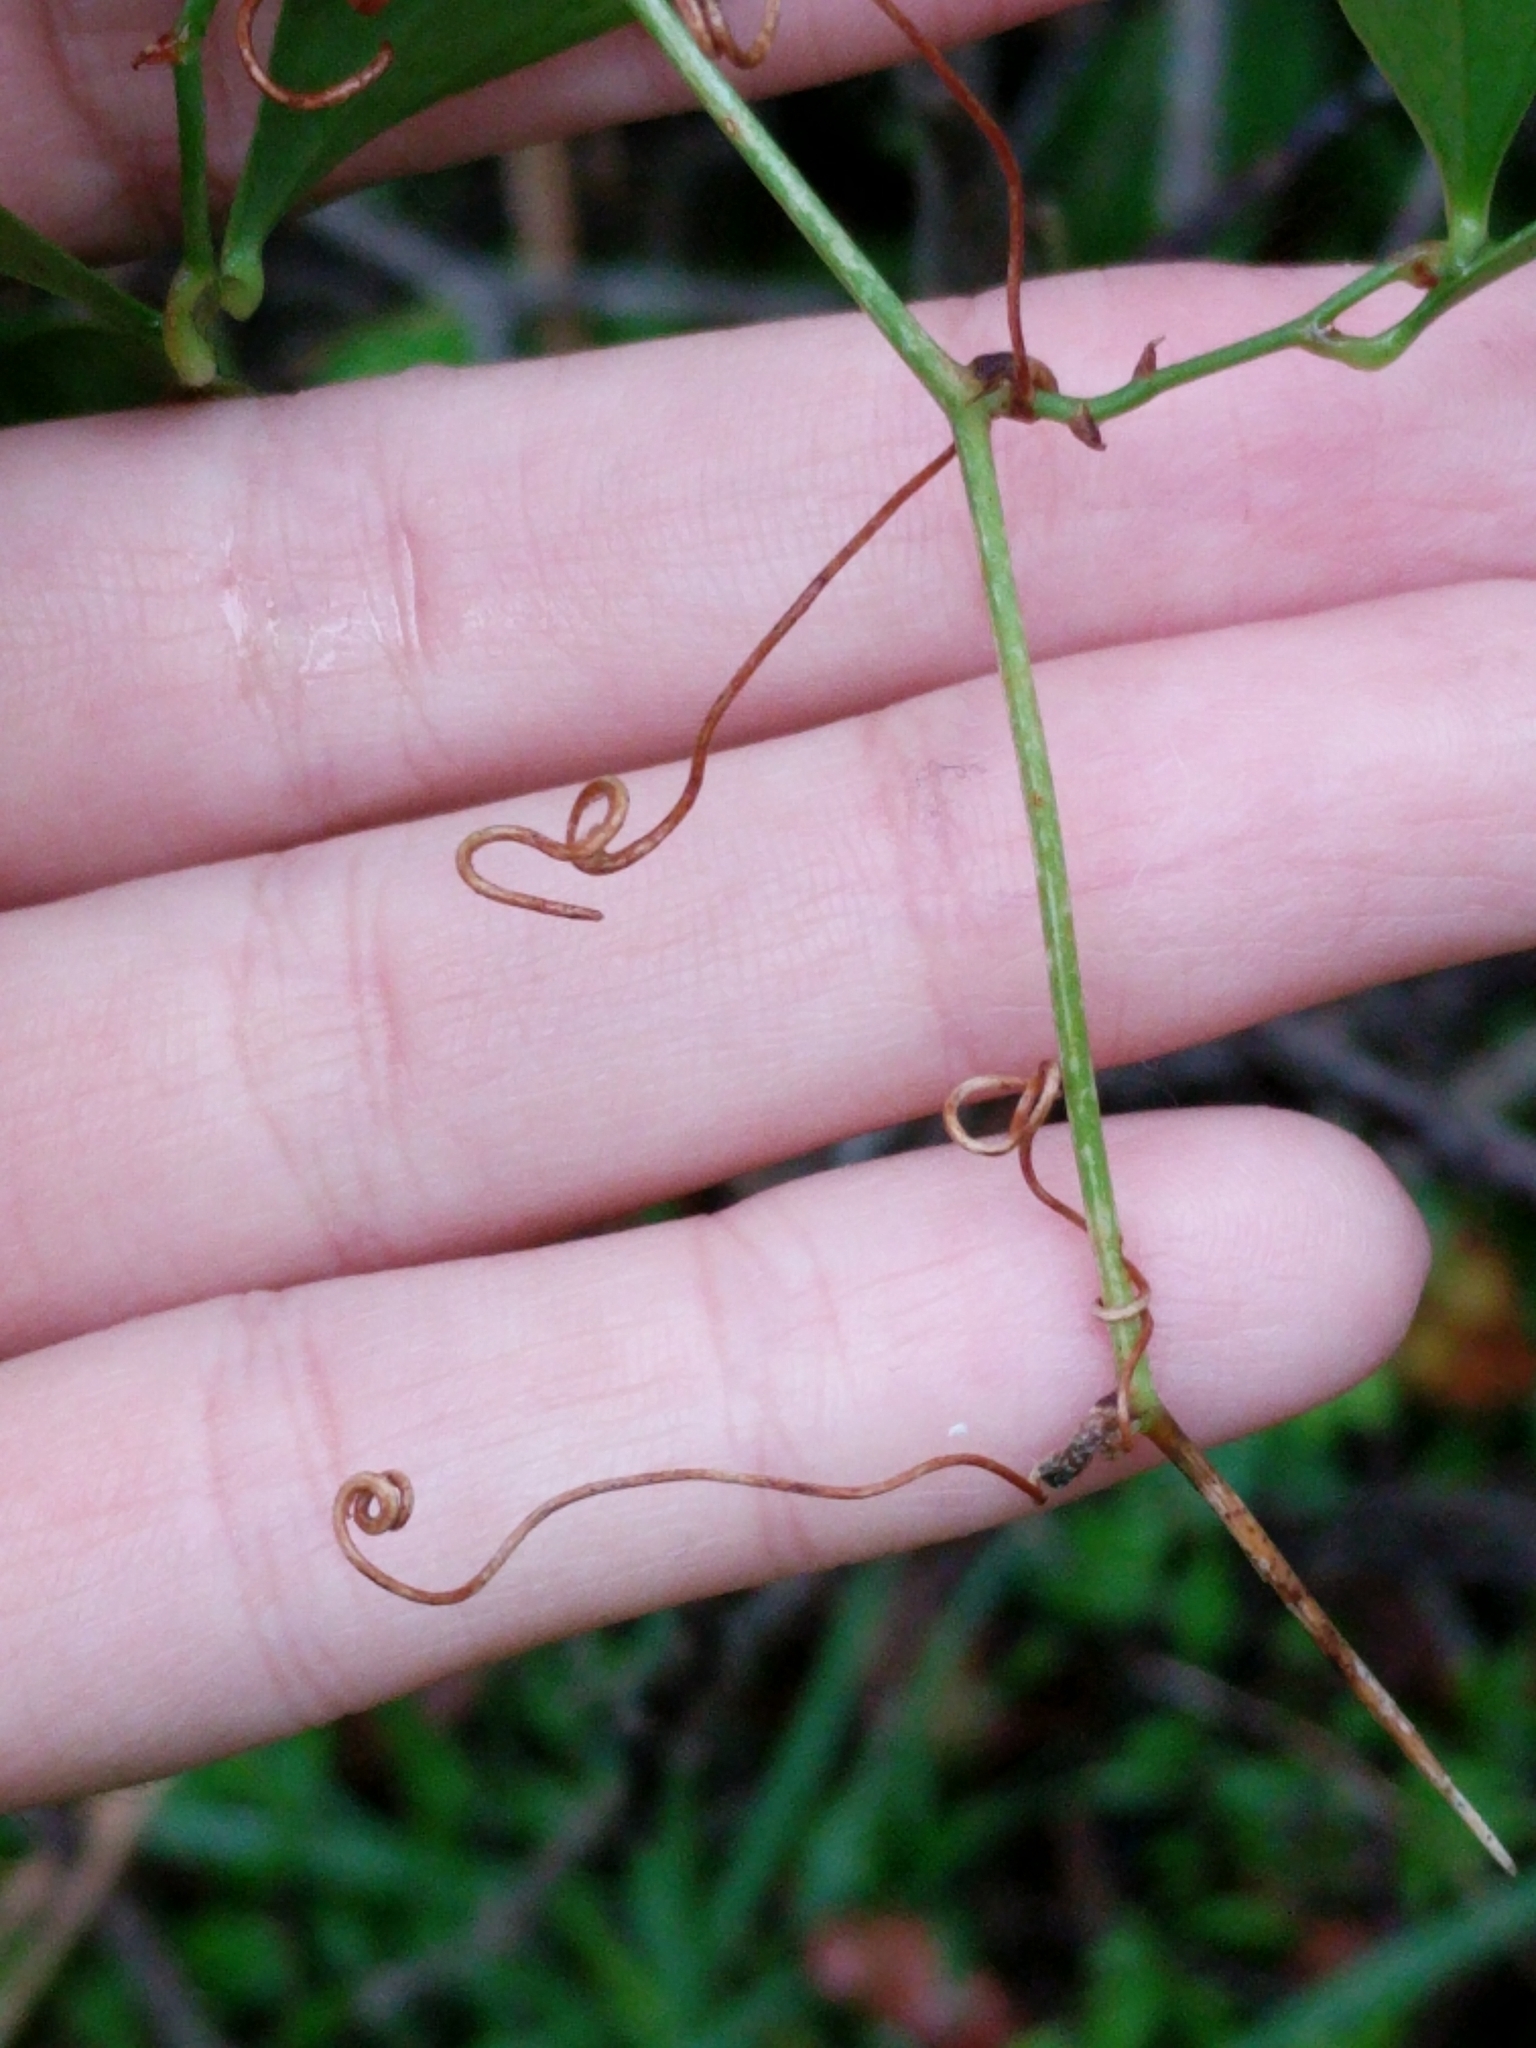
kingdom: Plantae
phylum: Tracheophyta
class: Liliopsida
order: Liliales
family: Smilacaceae
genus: Smilax
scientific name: Smilax auriculata
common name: Wild bamboo
